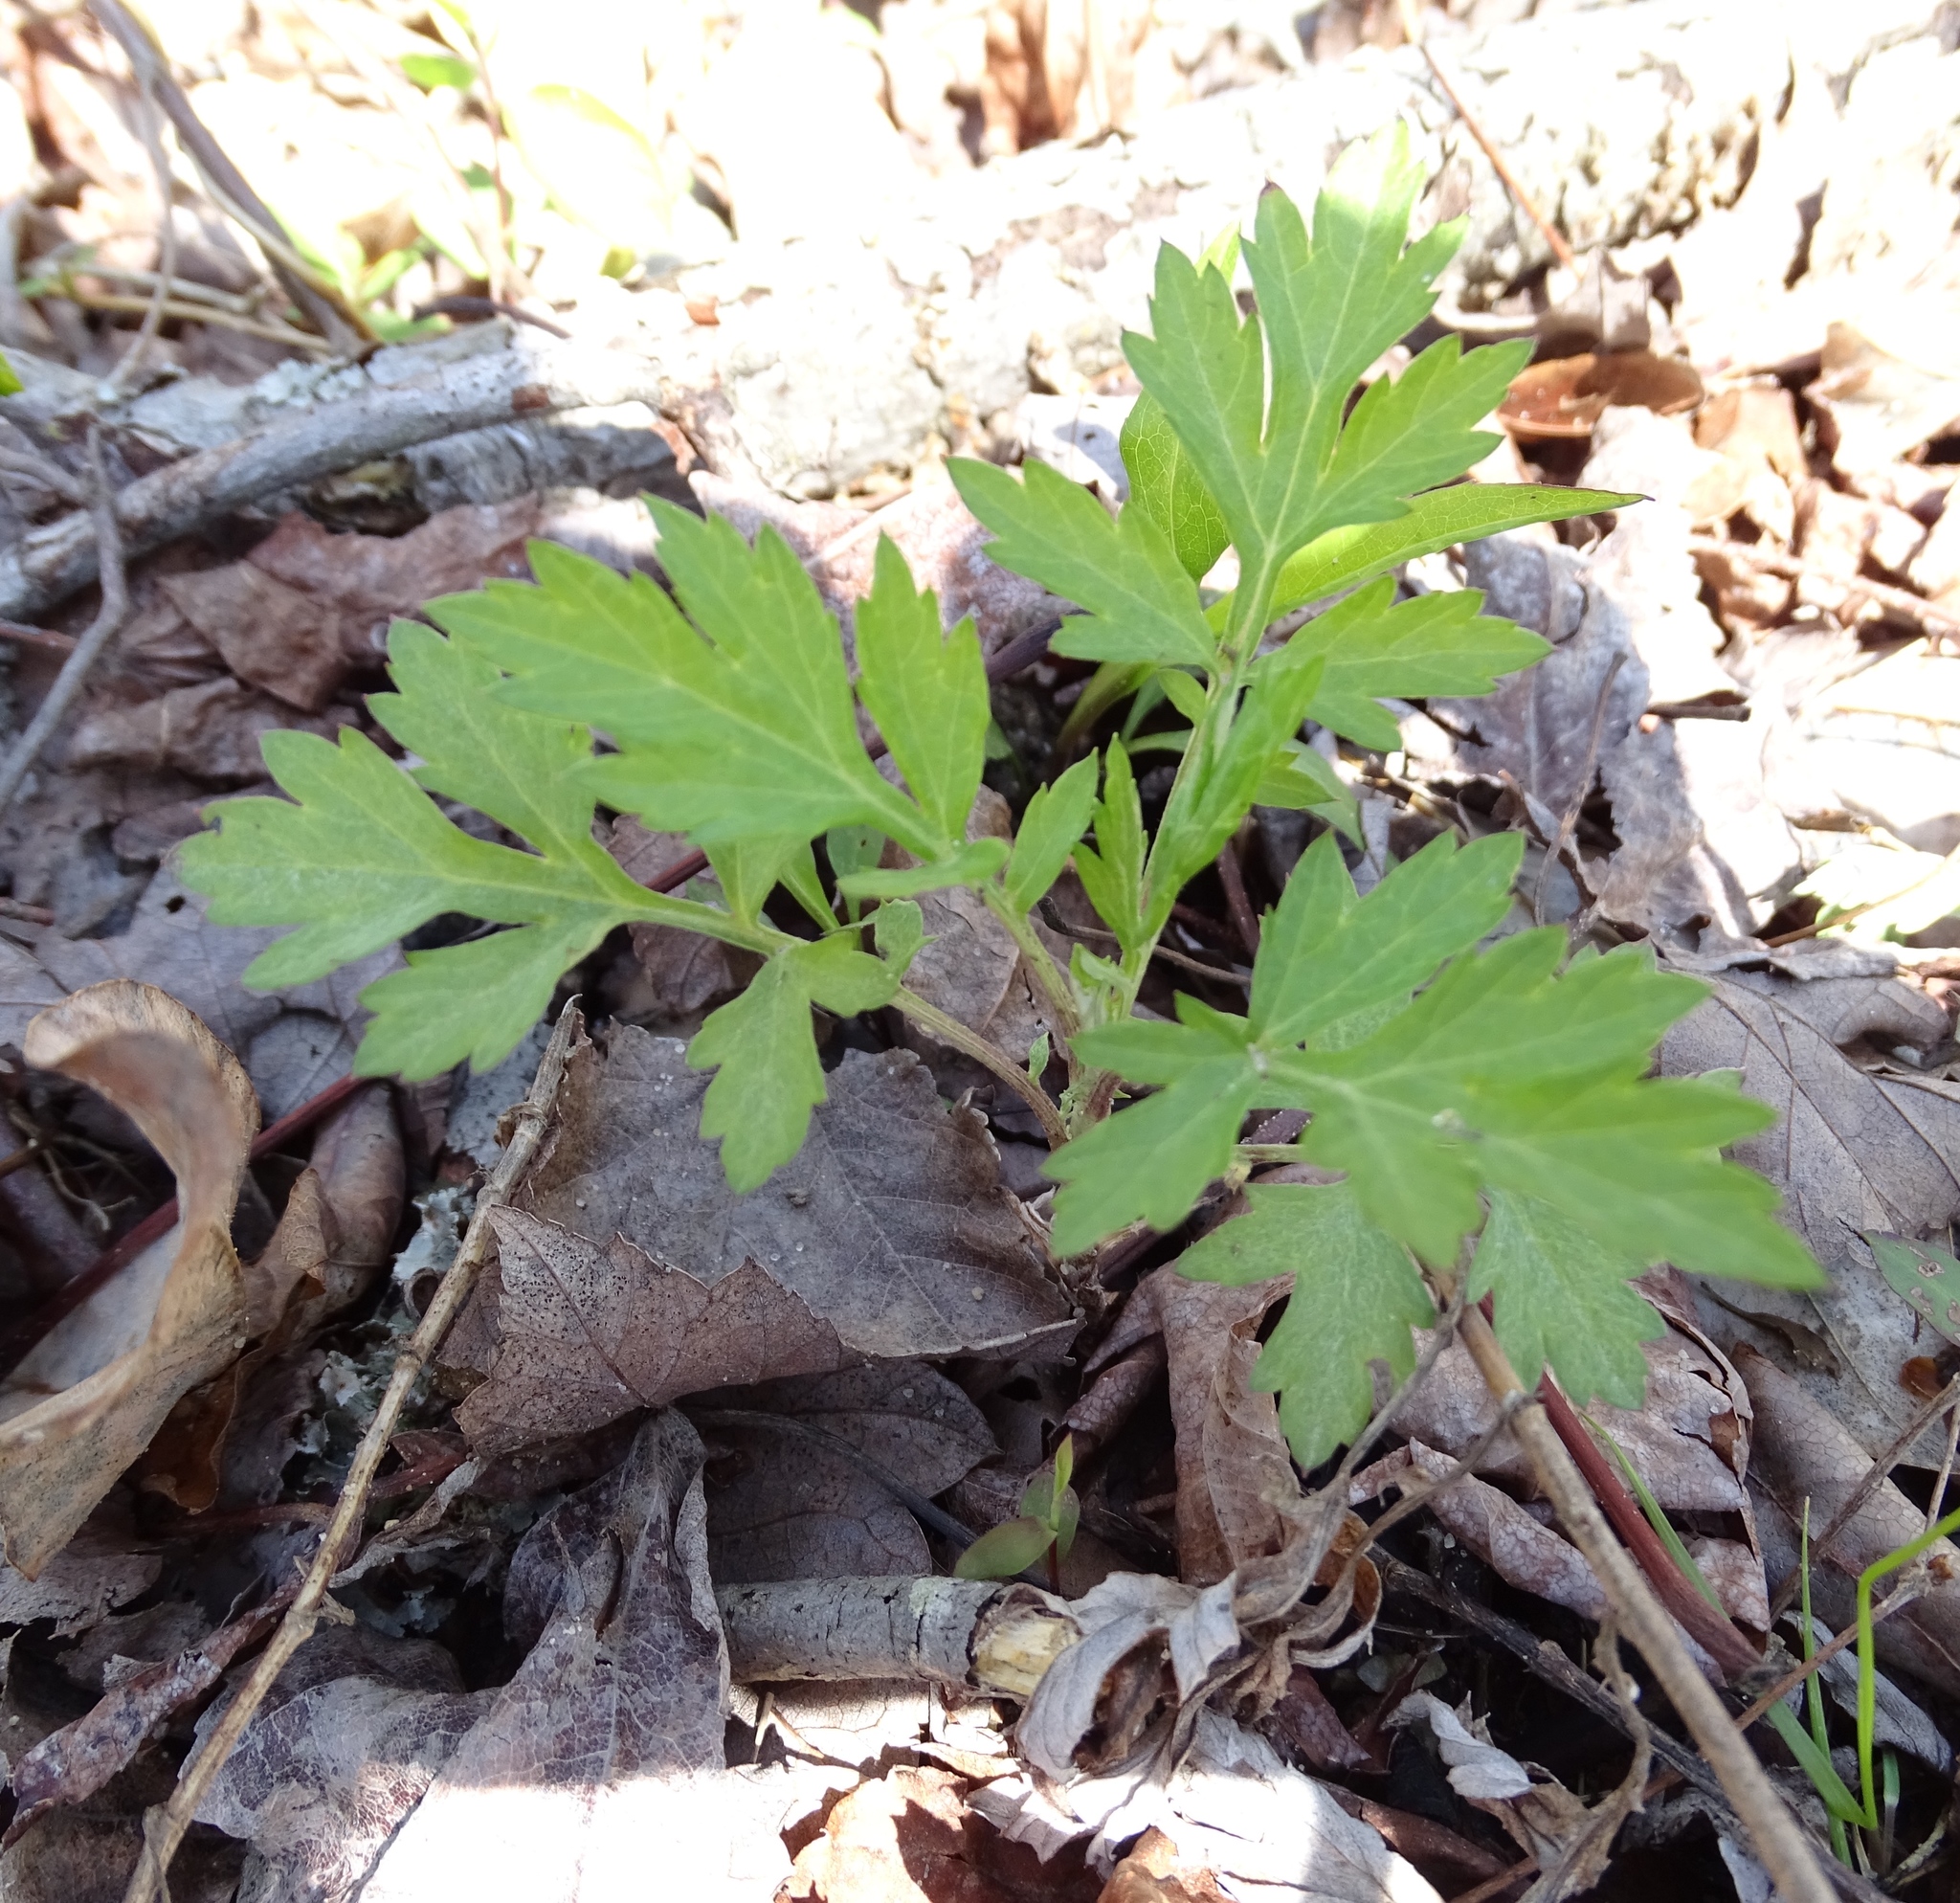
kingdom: Plantae
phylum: Tracheophyta
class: Magnoliopsida
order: Asterales
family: Asteraceae
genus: Artemisia
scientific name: Artemisia vulgaris
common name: Mugwort
